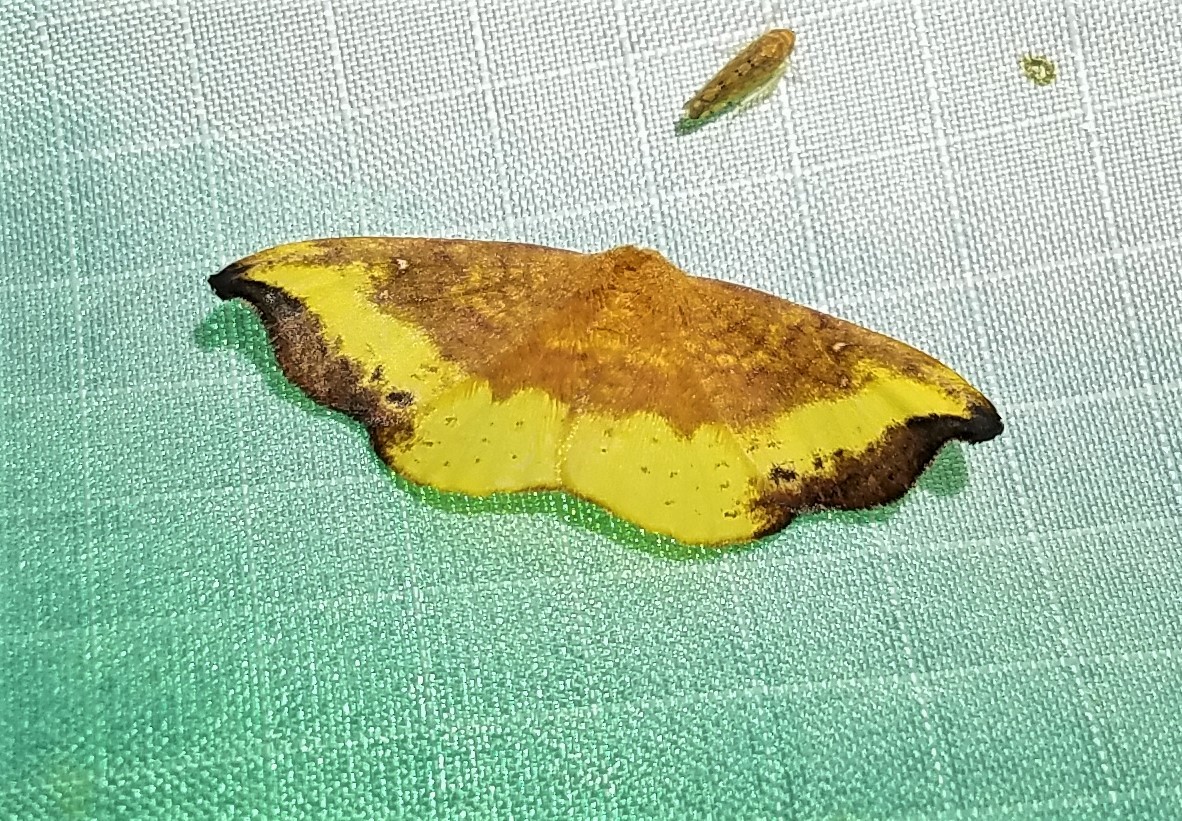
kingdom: Animalia
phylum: Arthropoda
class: Insecta
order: Lepidoptera
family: Drepanidae
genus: Oreta
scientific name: Oreta rosea
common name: Rose hooktip
